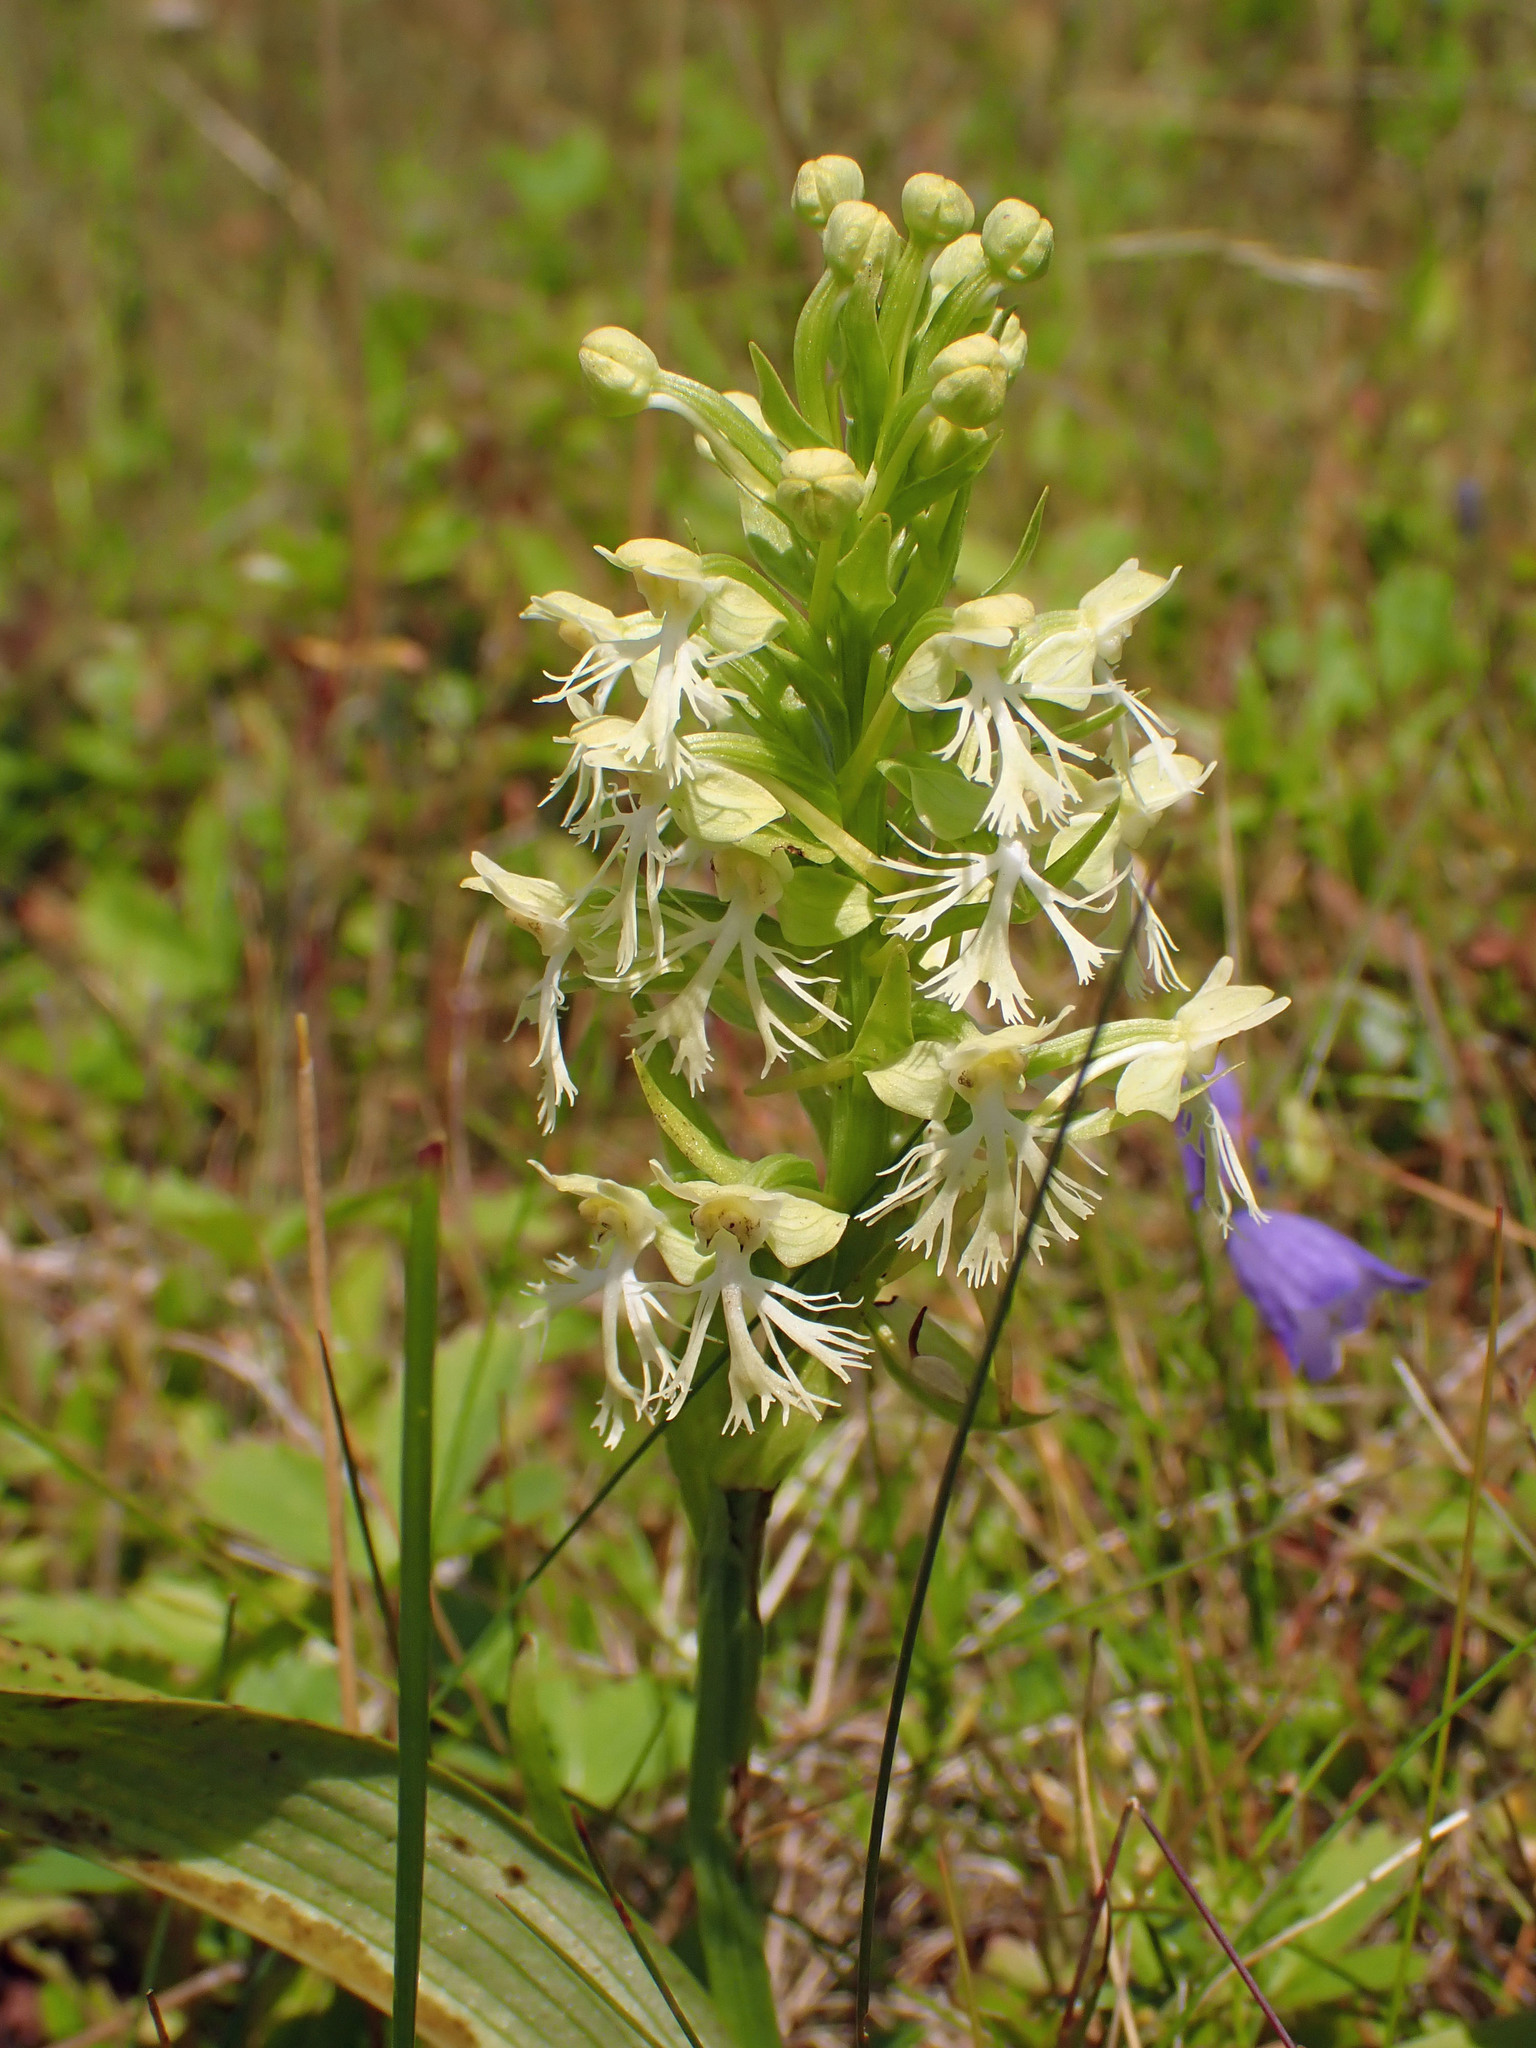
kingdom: Plantae
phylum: Tracheophyta
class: Liliopsida
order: Asparagales
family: Orchidaceae
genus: Platanthera
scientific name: Platanthera lacera
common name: Green fringed orchid
